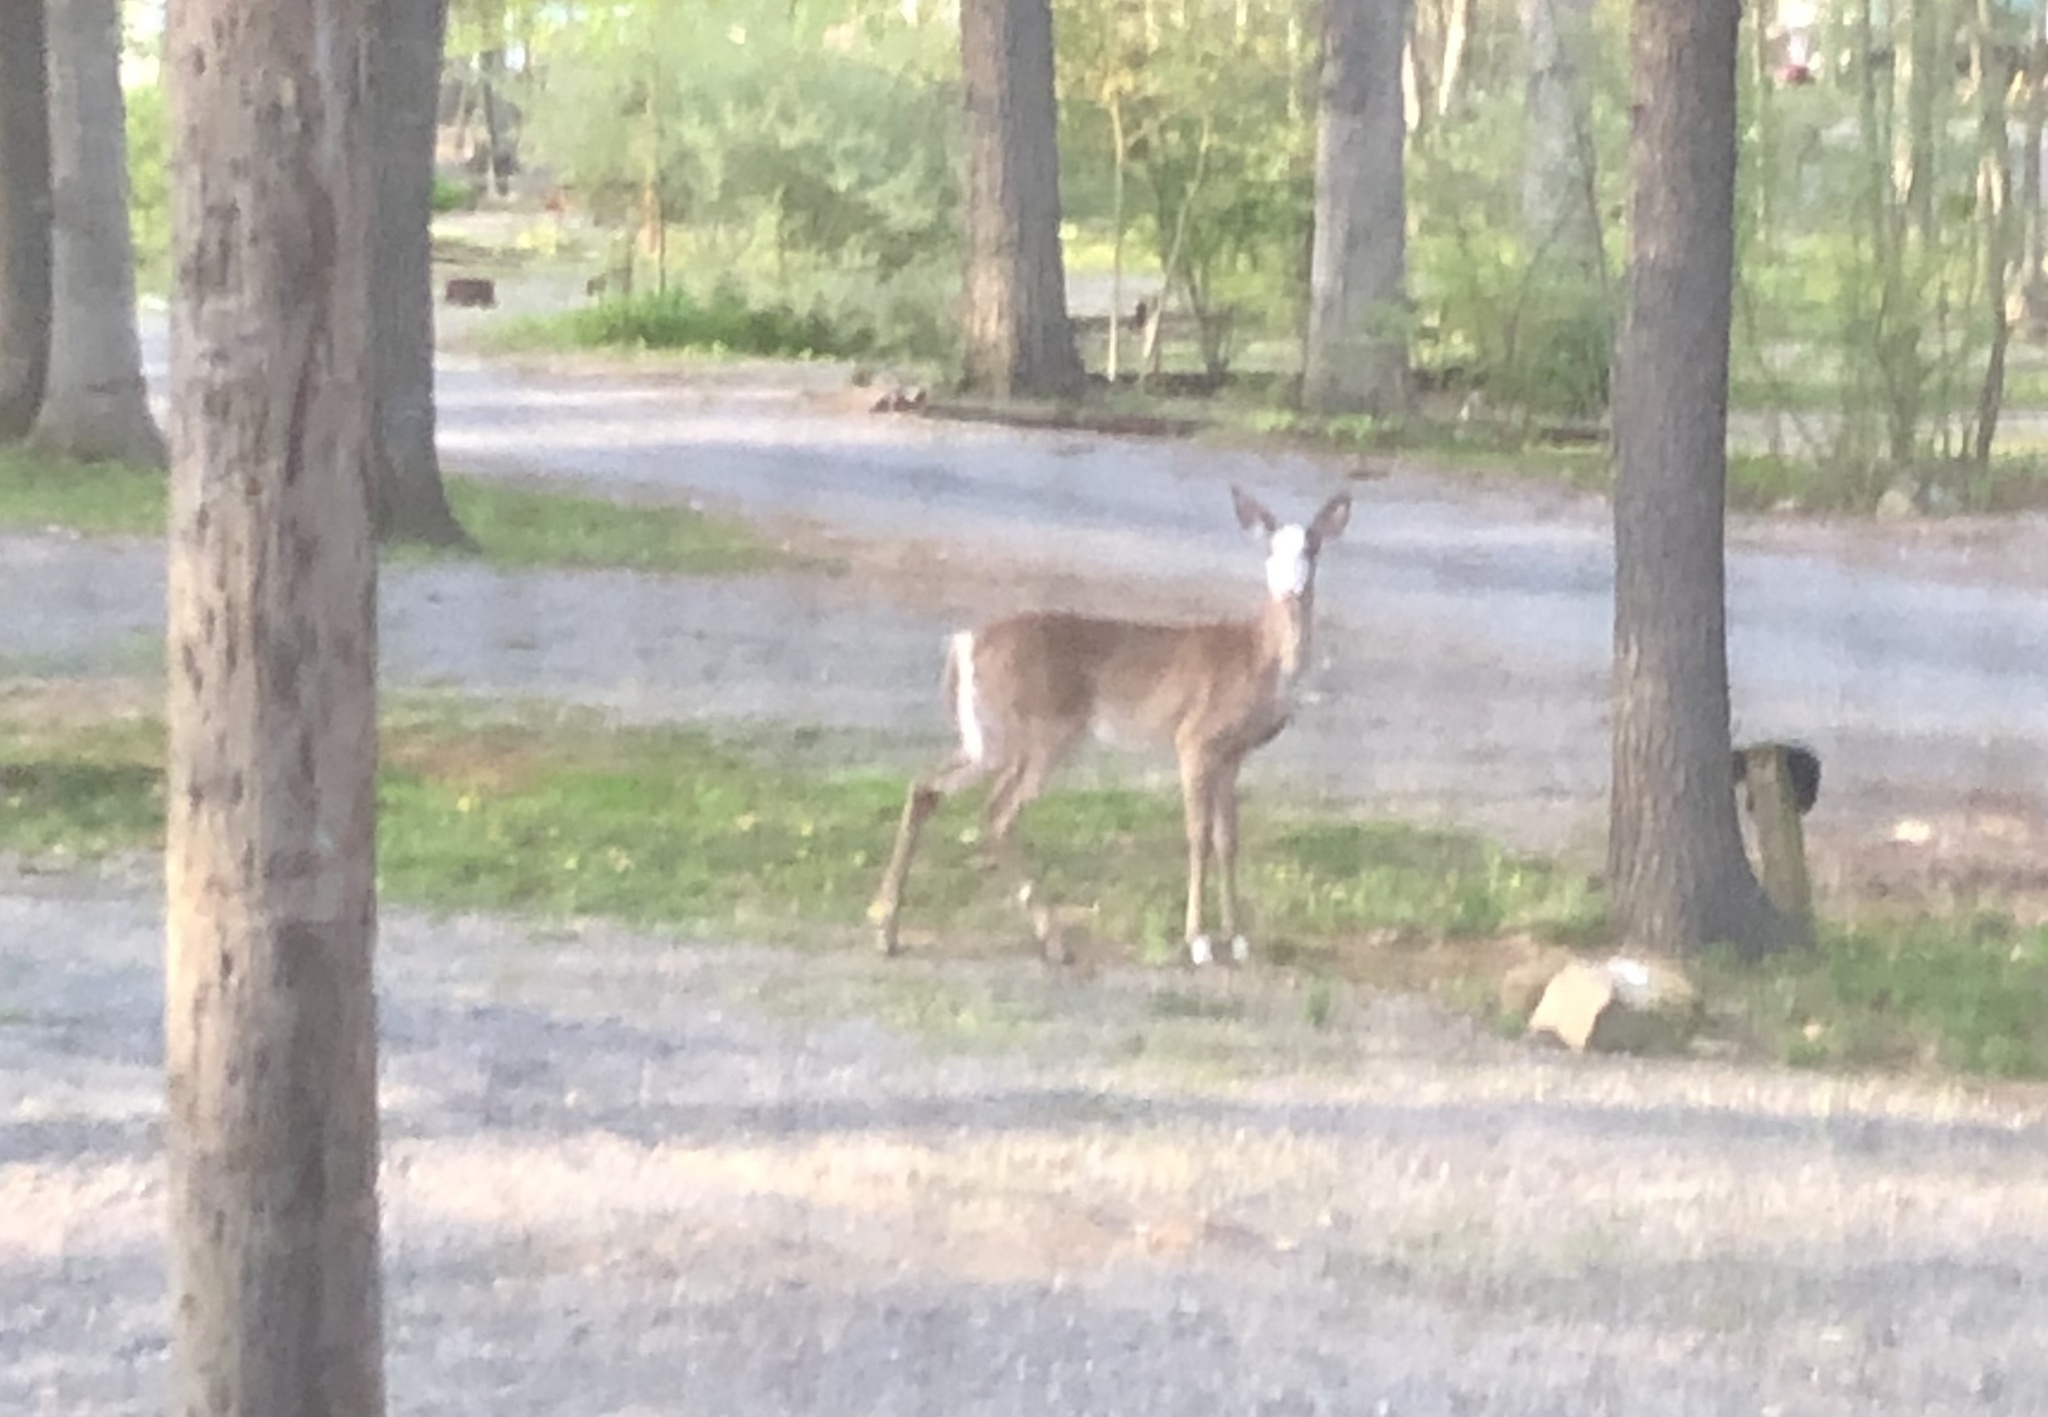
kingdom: Animalia
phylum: Chordata
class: Mammalia
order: Artiodactyla
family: Cervidae
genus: Odocoileus
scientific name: Odocoileus virginianus
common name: White-tailed deer
